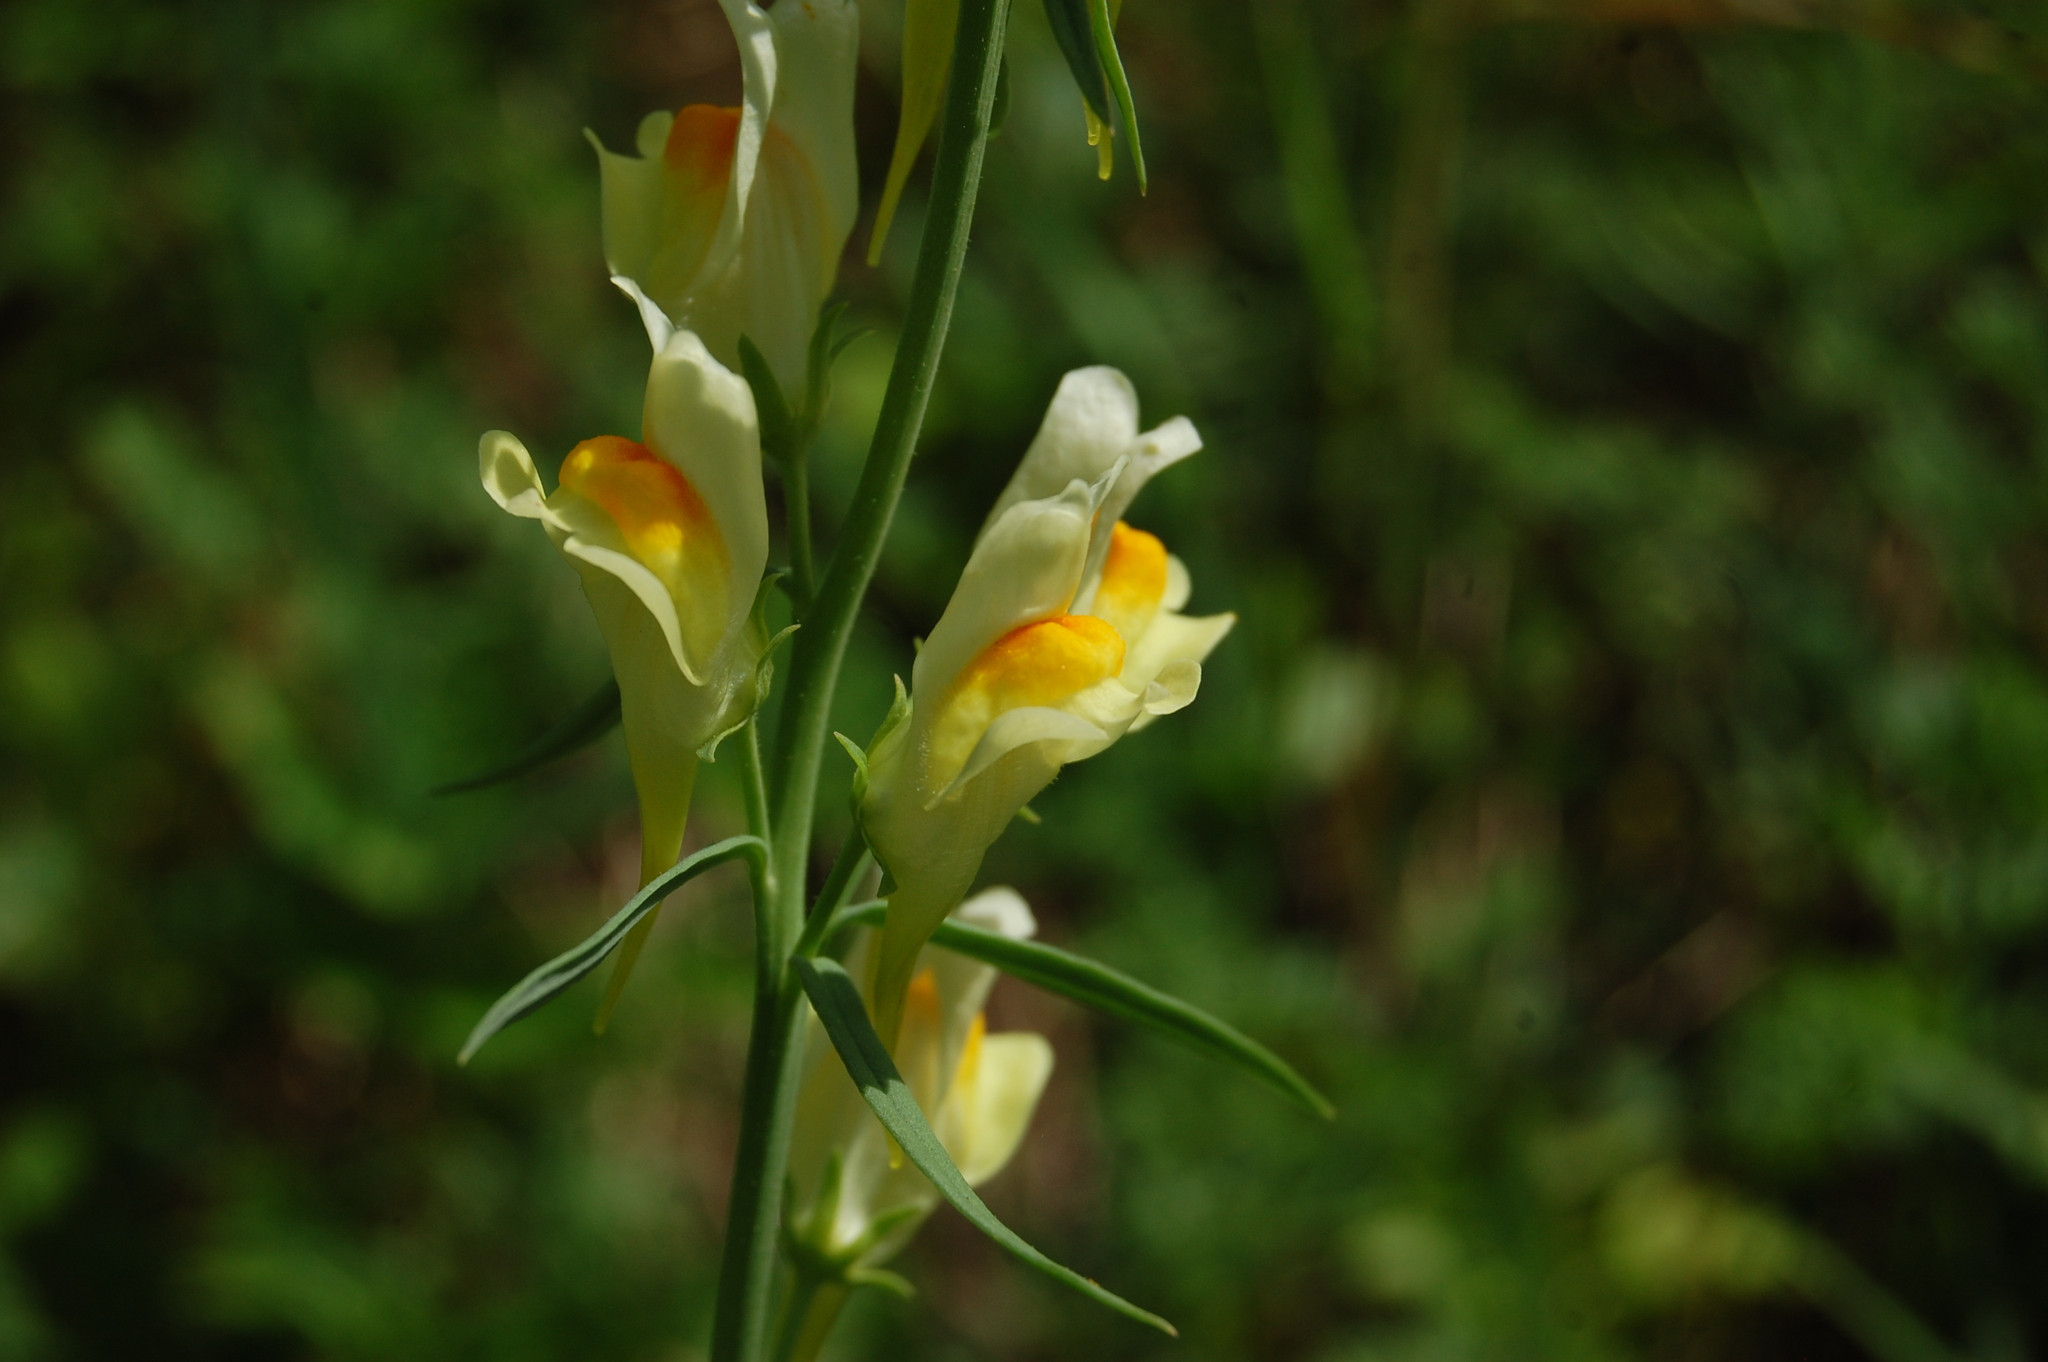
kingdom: Plantae
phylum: Tracheophyta
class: Magnoliopsida
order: Lamiales
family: Plantaginaceae
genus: Linaria
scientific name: Linaria vulgaris
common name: Butter and eggs
